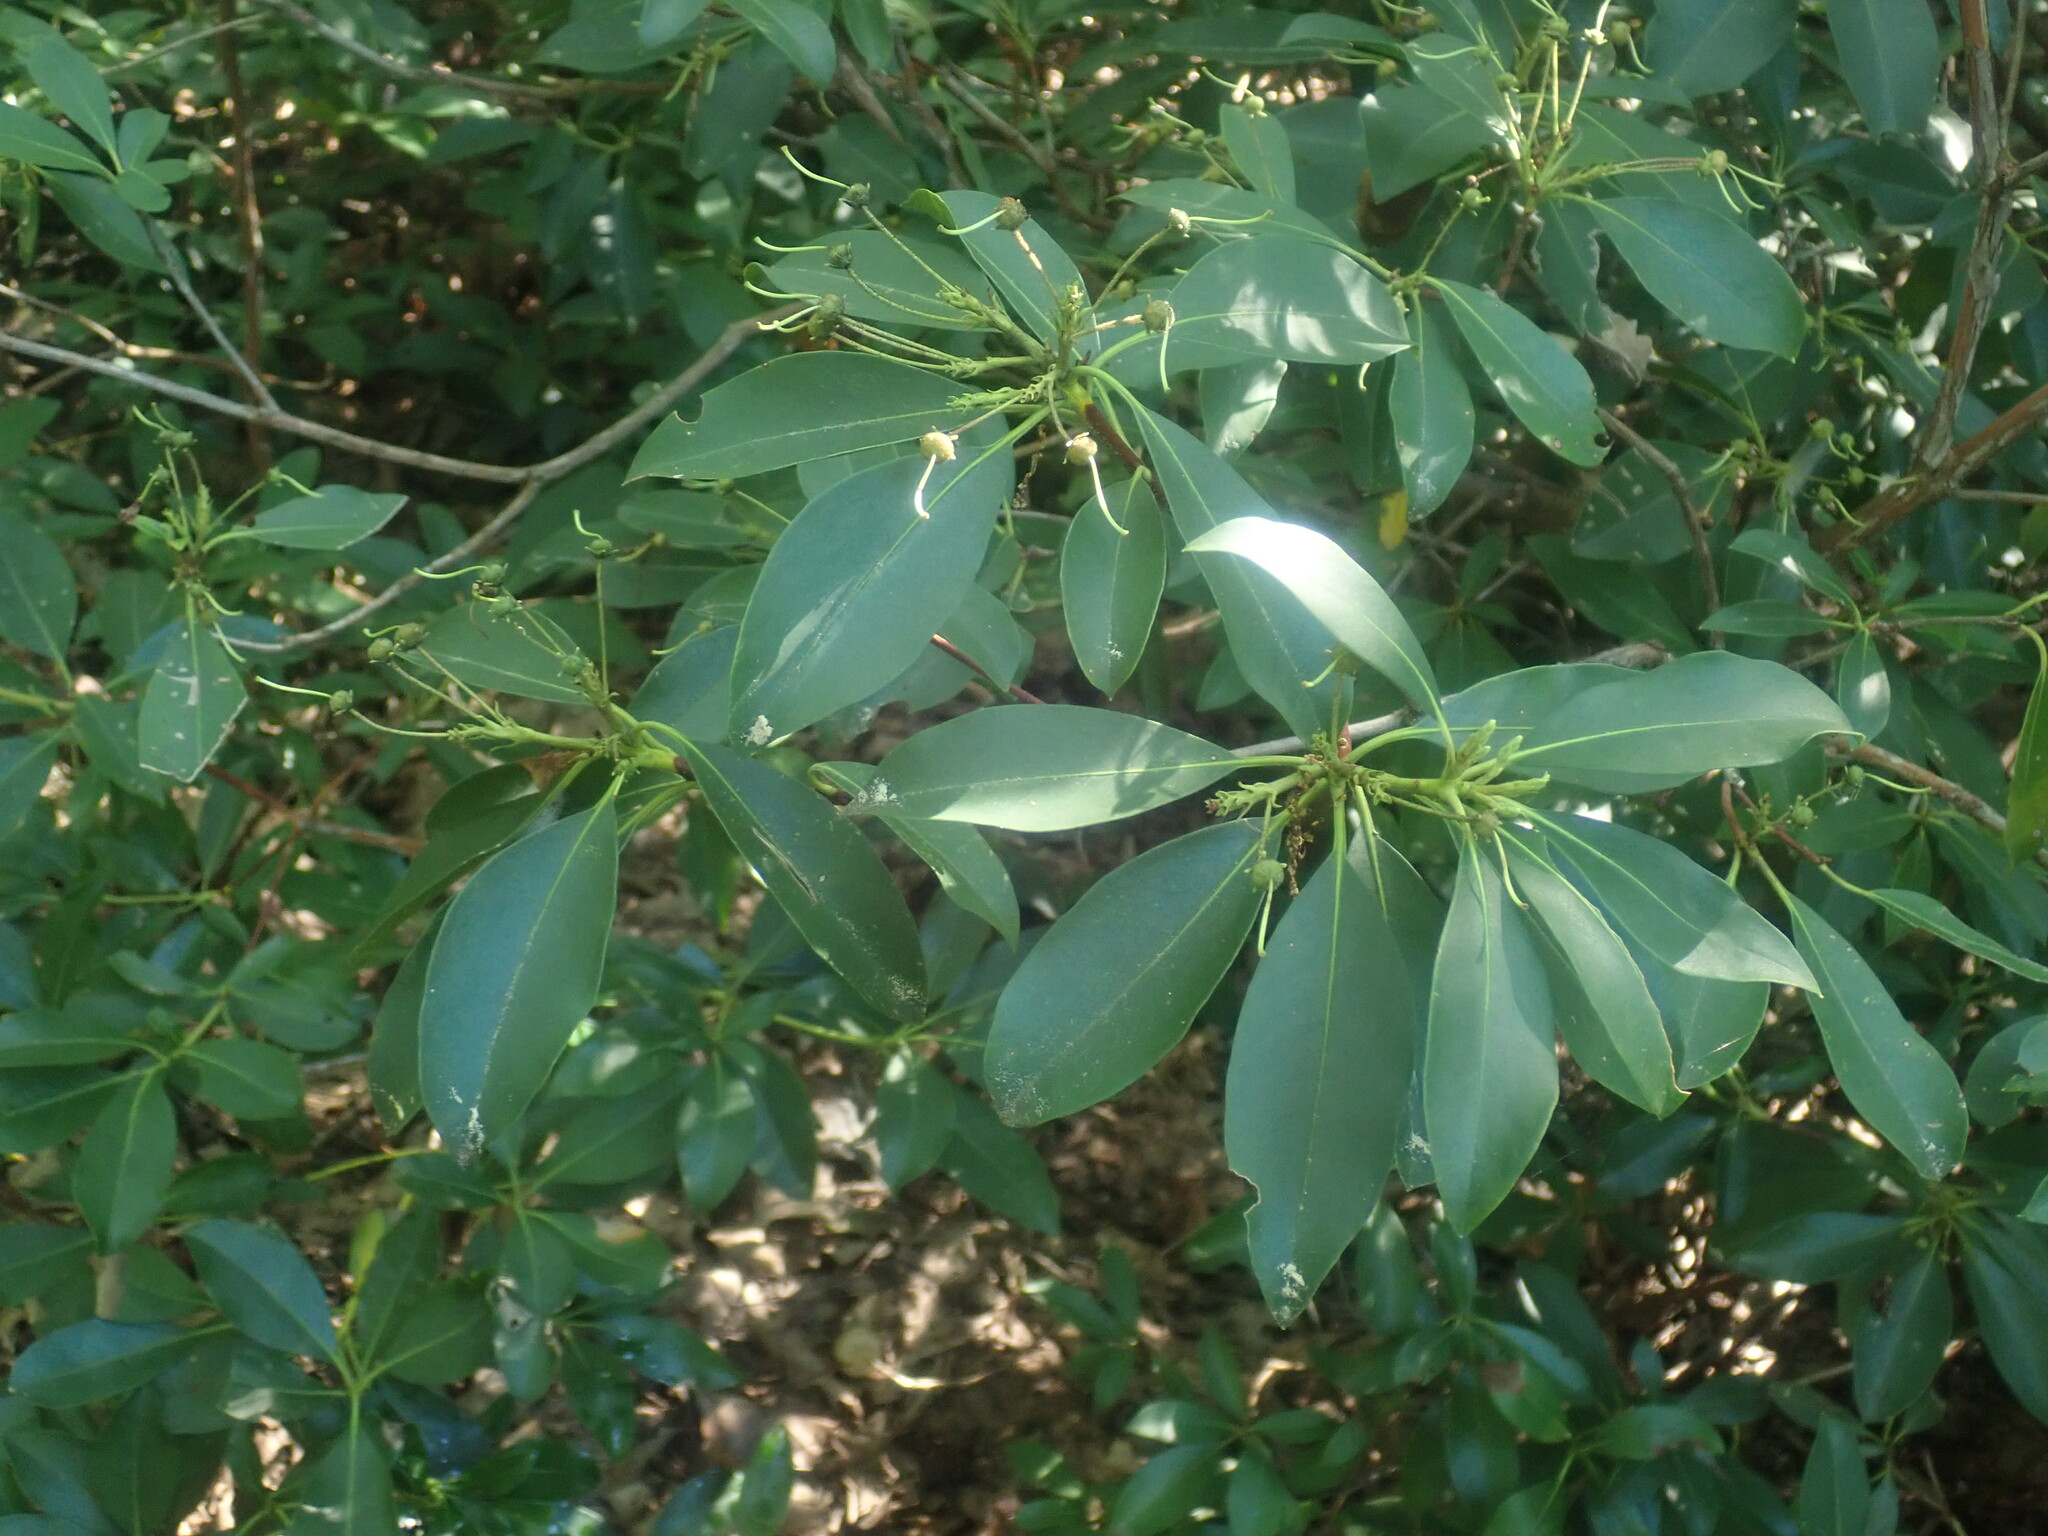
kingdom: Plantae
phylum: Tracheophyta
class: Magnoliopsida
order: Ericales
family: Ericaceae
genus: Kalmia
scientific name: Kalmia latifolia
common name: Mountain-laurel
